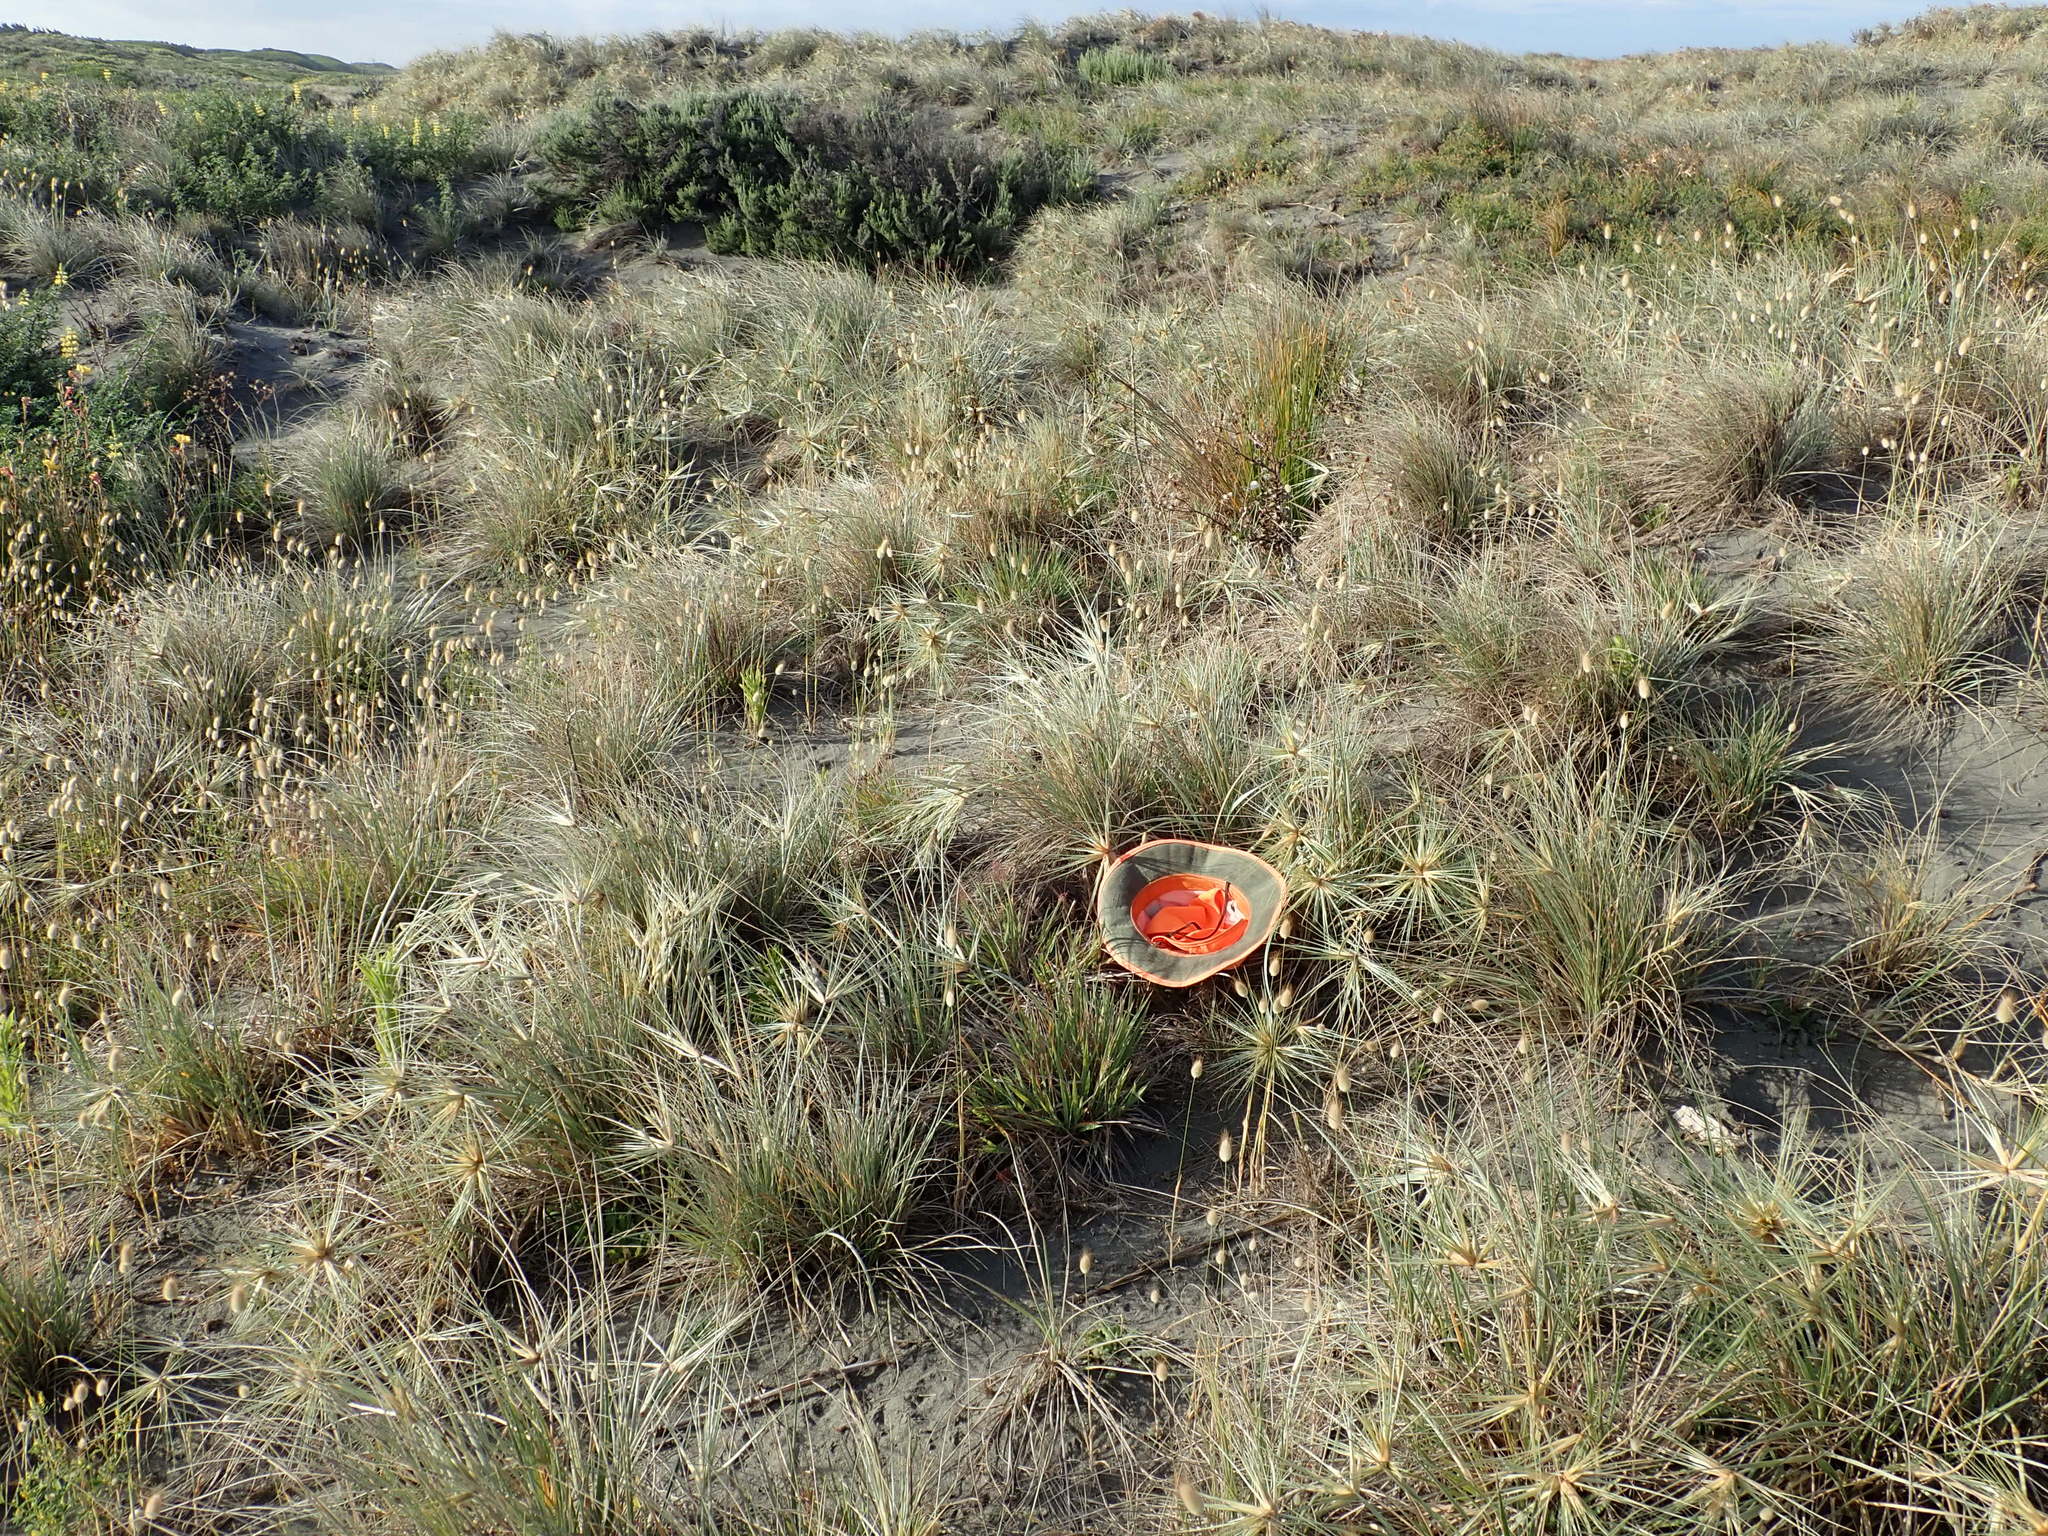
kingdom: Plantae
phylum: Tracheophyta
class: Liliopsida
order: Poales
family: Poaceae
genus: Lachnagrostis
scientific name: Lachnagrostis billardierei
